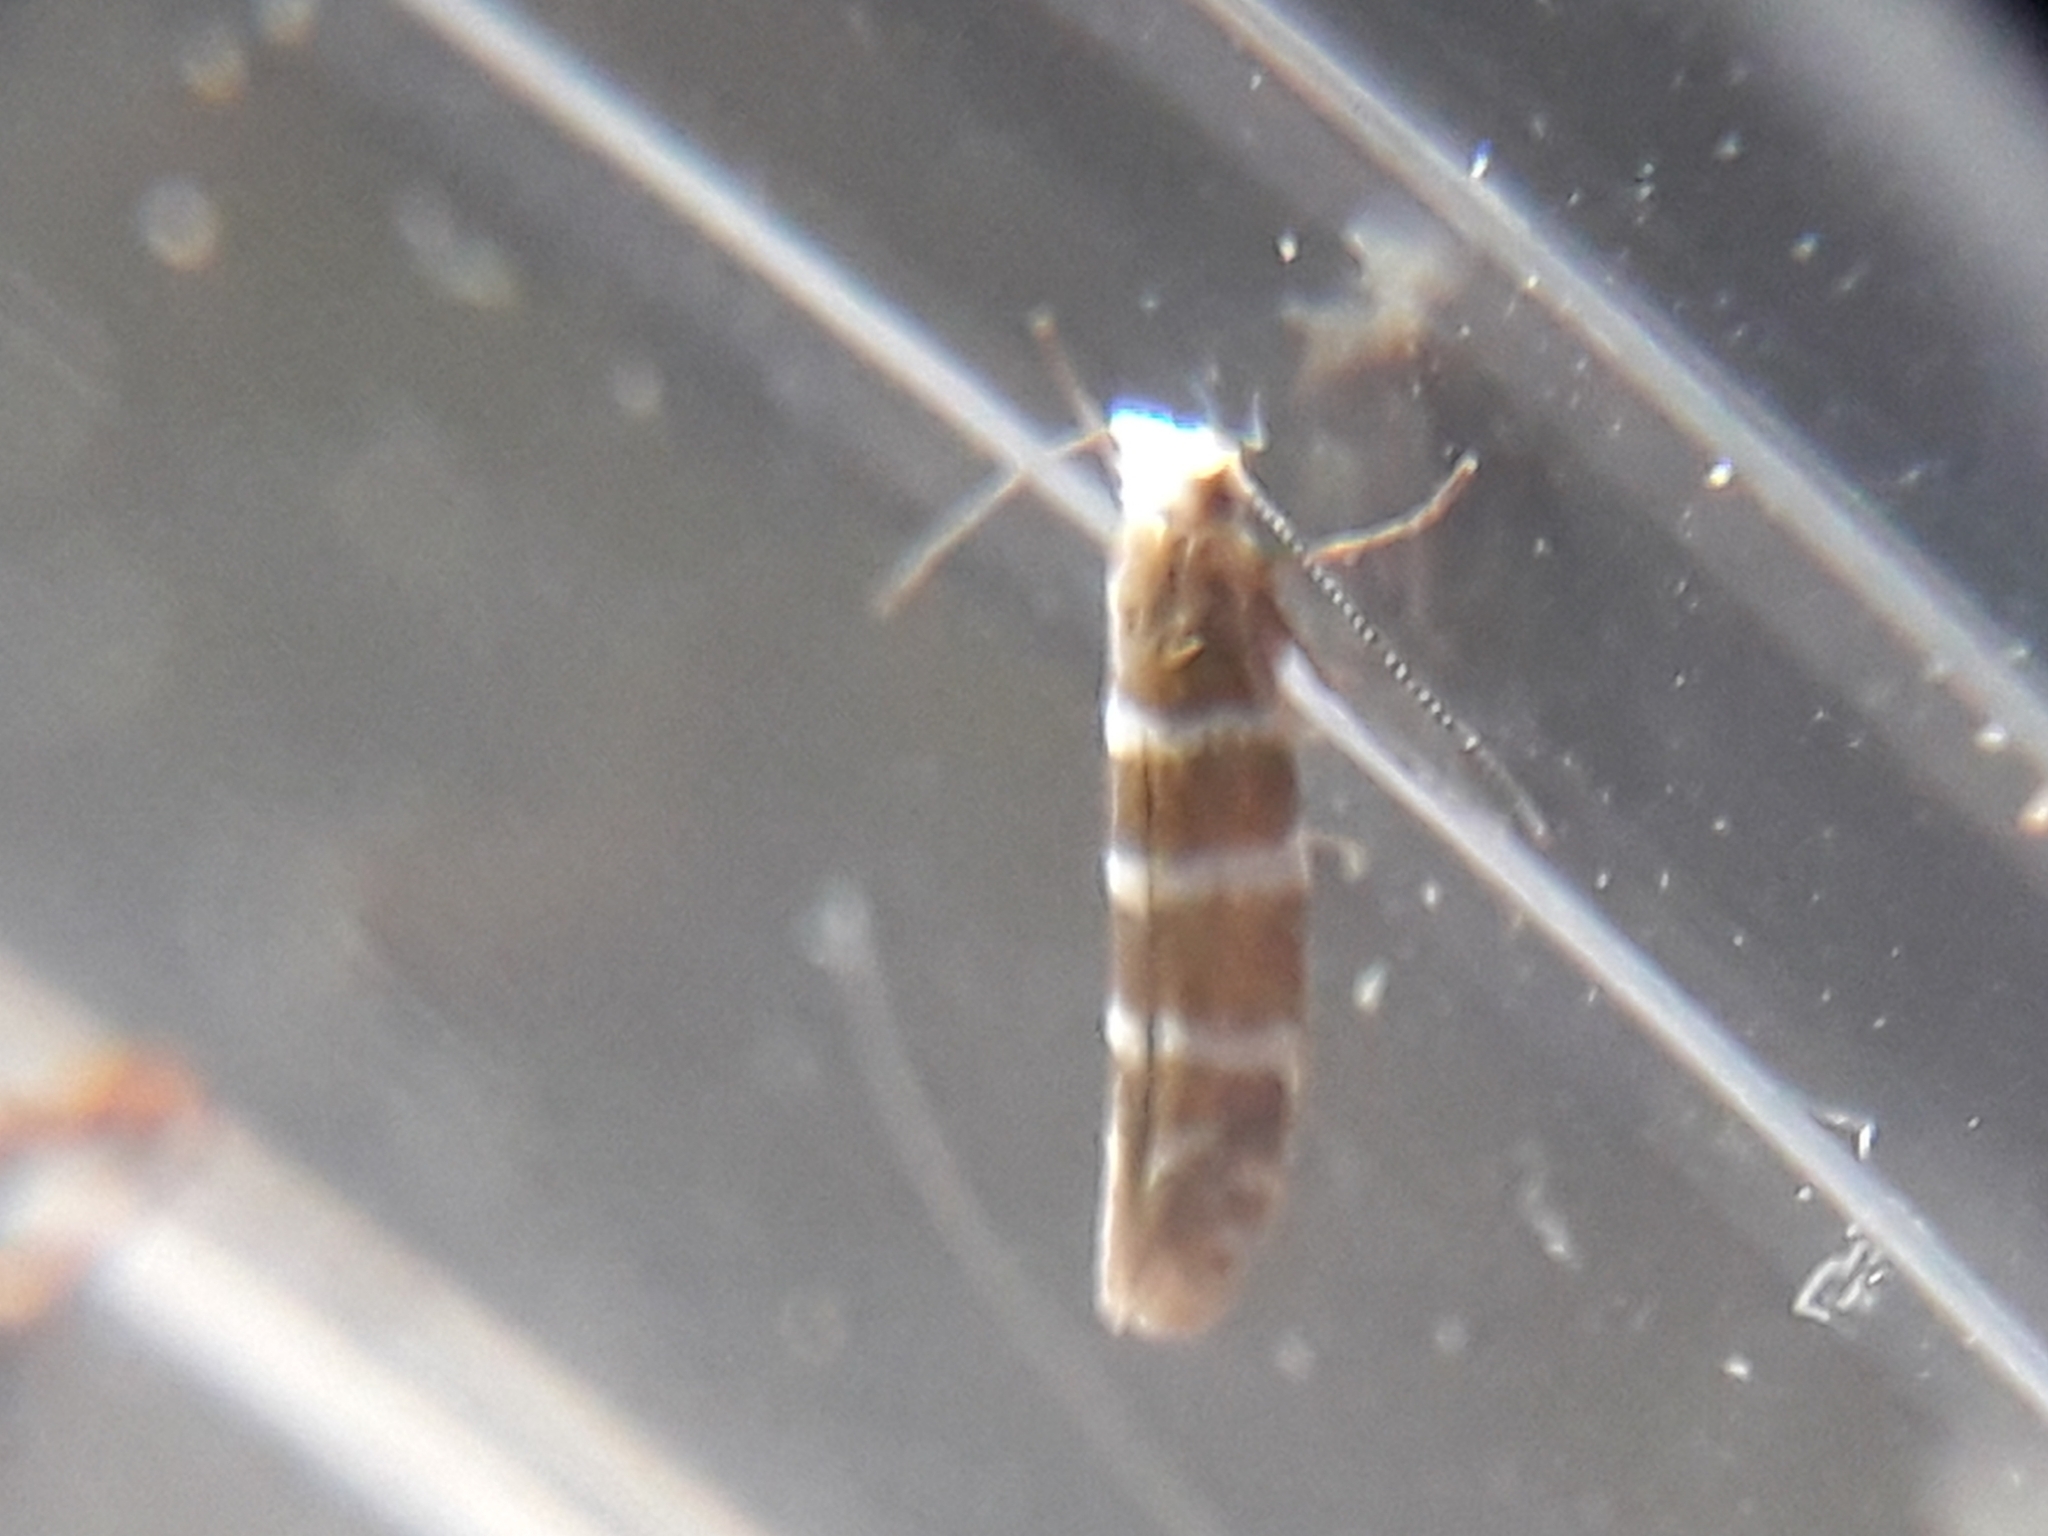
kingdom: Animalia
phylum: Arthropoda
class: Insecta
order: Lepidoptera
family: Argyresthiidae
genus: Argyresthia
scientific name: Argyresthia trifasciata
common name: Triple-barred argent
